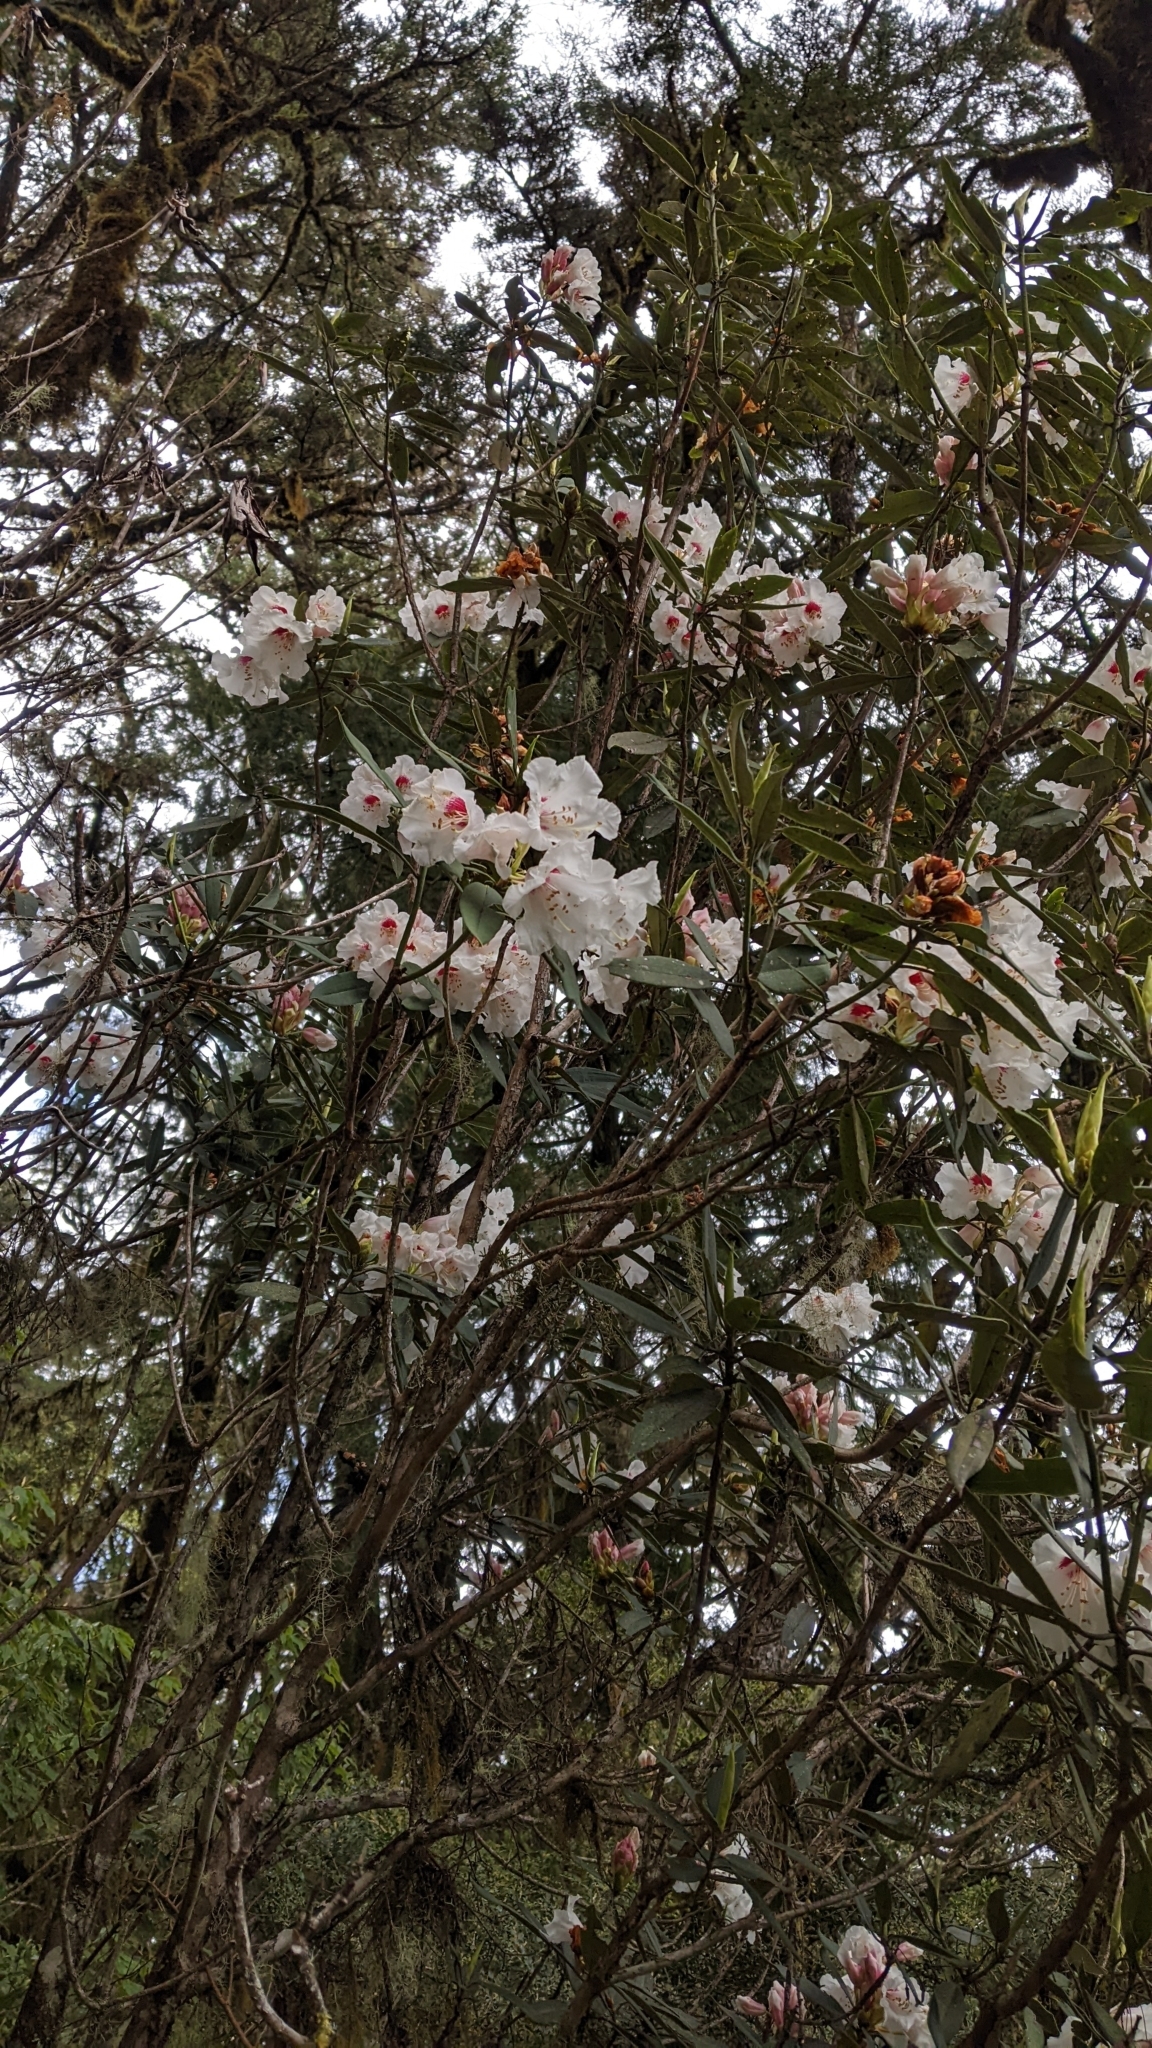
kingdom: Plantae
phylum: Tracheophyta
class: Magnoliopsida
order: Ericales
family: Ericaceae
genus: Rhododendron
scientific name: Rhododendron pseudochrysanthum
